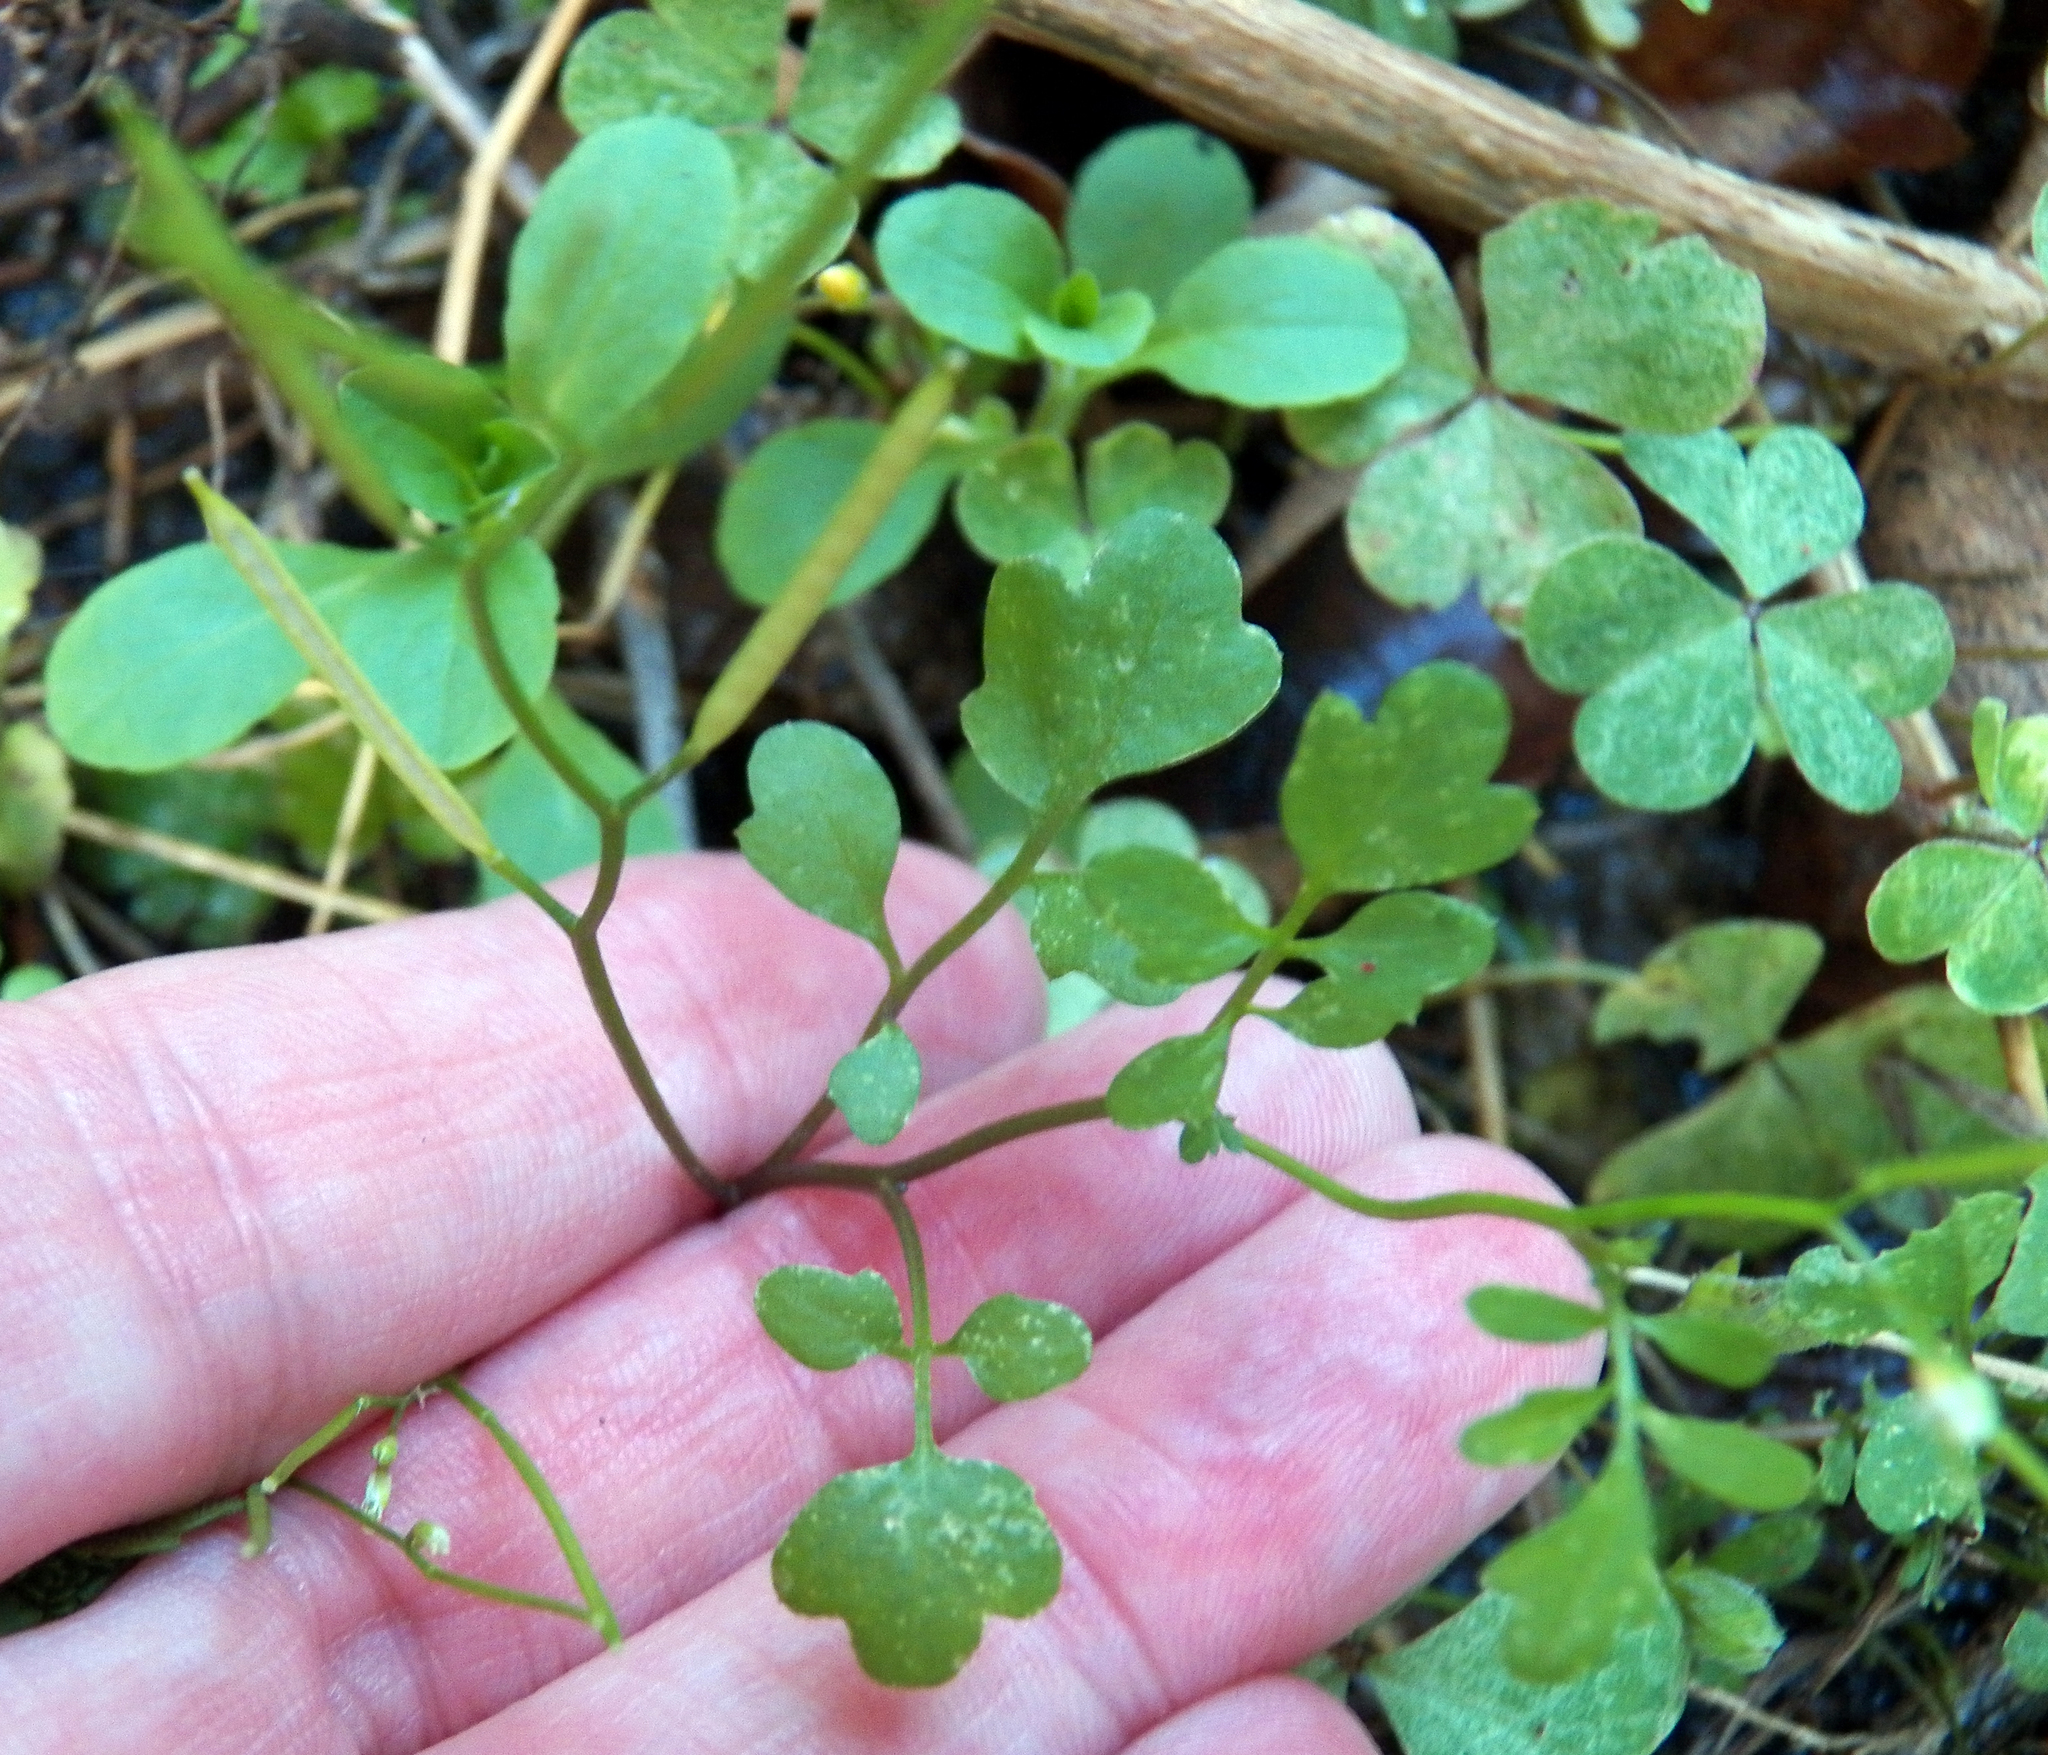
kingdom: Plantae
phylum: Tracheophyta
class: Magnoliopsida
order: Brassicales
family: Brassicaceae
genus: Cardamine
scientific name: Cardamine occulta
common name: Asian wavy bittercress
